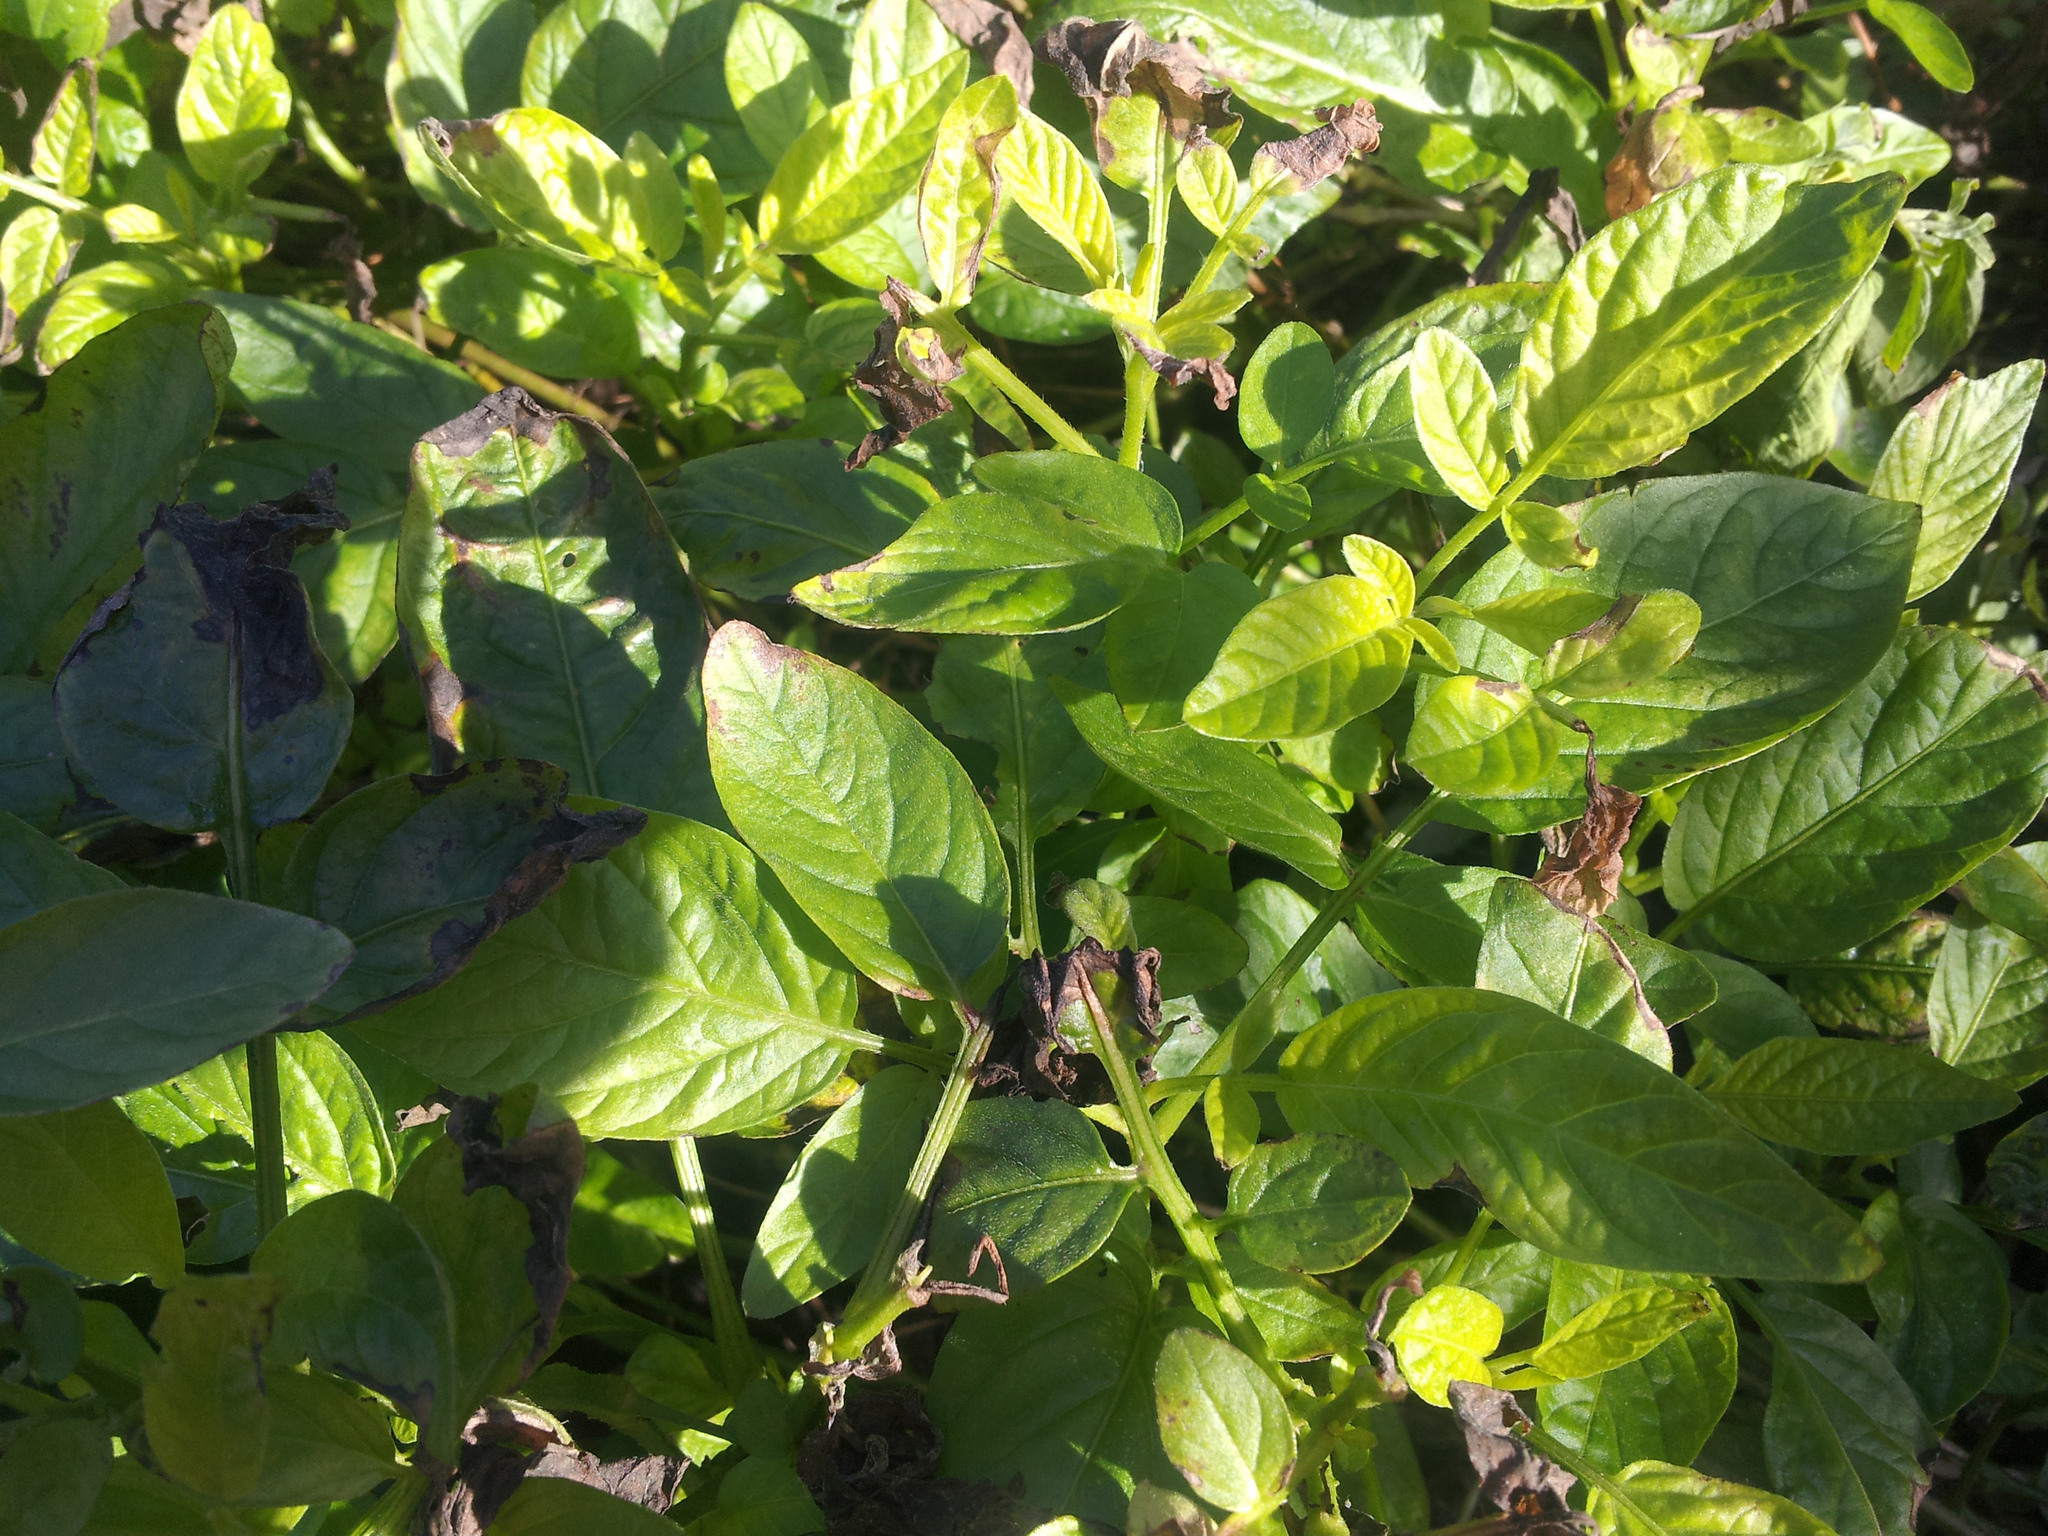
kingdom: Plantae
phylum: Tracheophyta
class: Magnoliopsida
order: Solanales
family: Solanaceae
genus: Solanum
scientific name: Solanum muricatum
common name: Peruvian pepino
